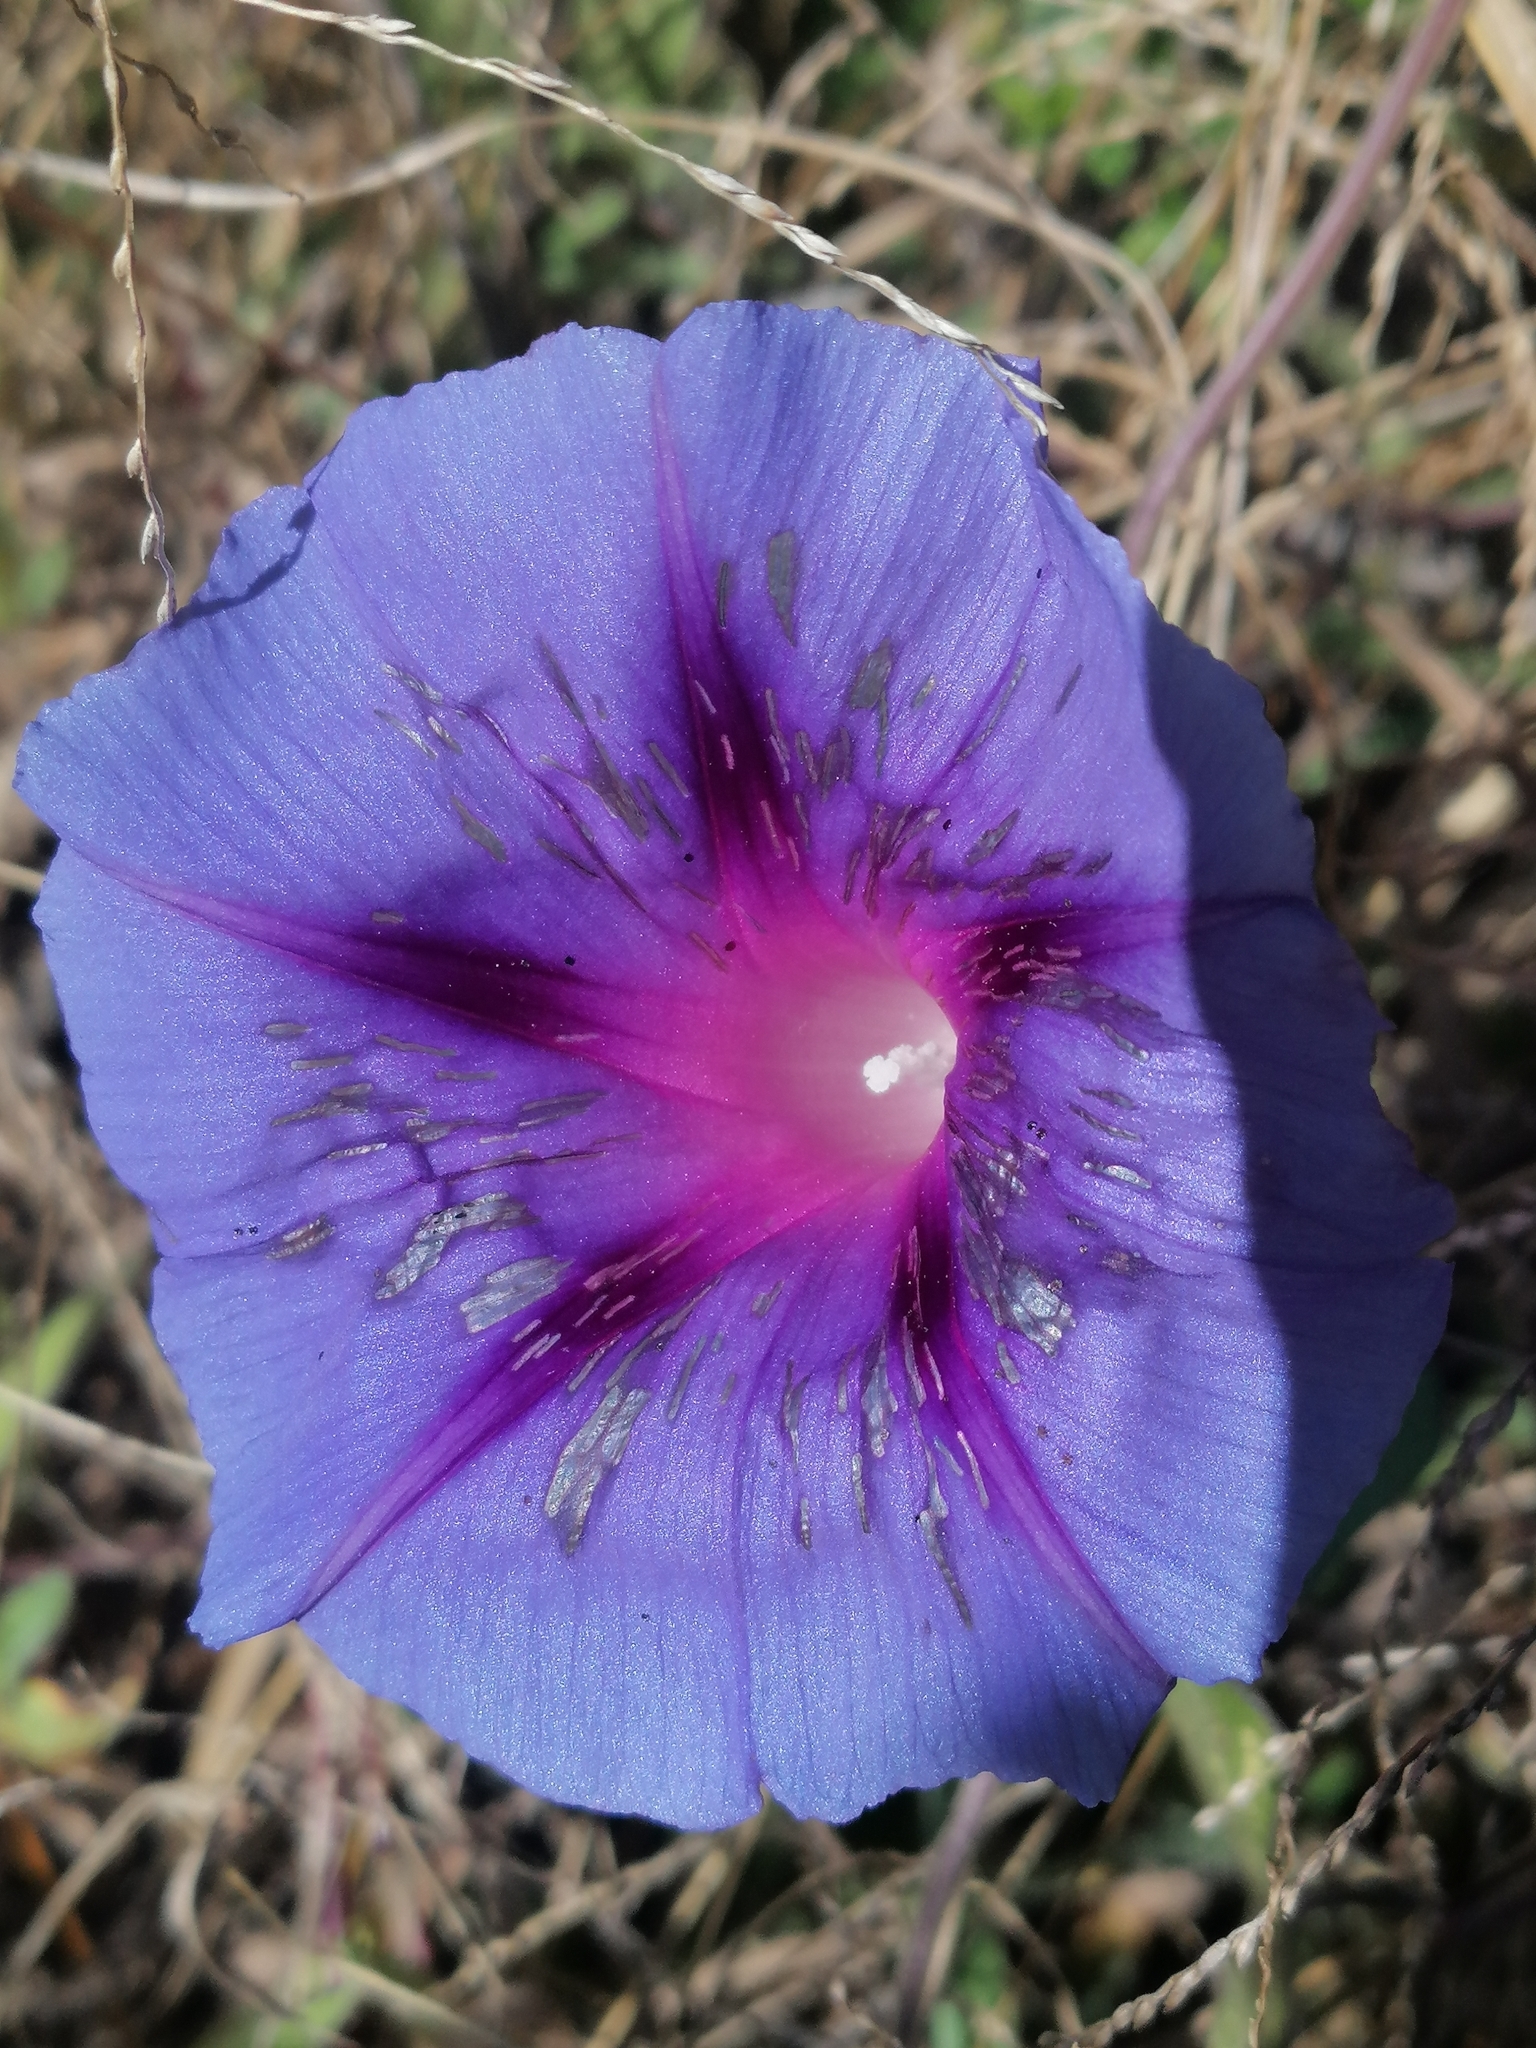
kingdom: Plantae
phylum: Tracheophyta
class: Magnoliopsida
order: Solanales
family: Convolvulaceae
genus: Ipomoea
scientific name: Ipomoea purpurea
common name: Common morning-glory
